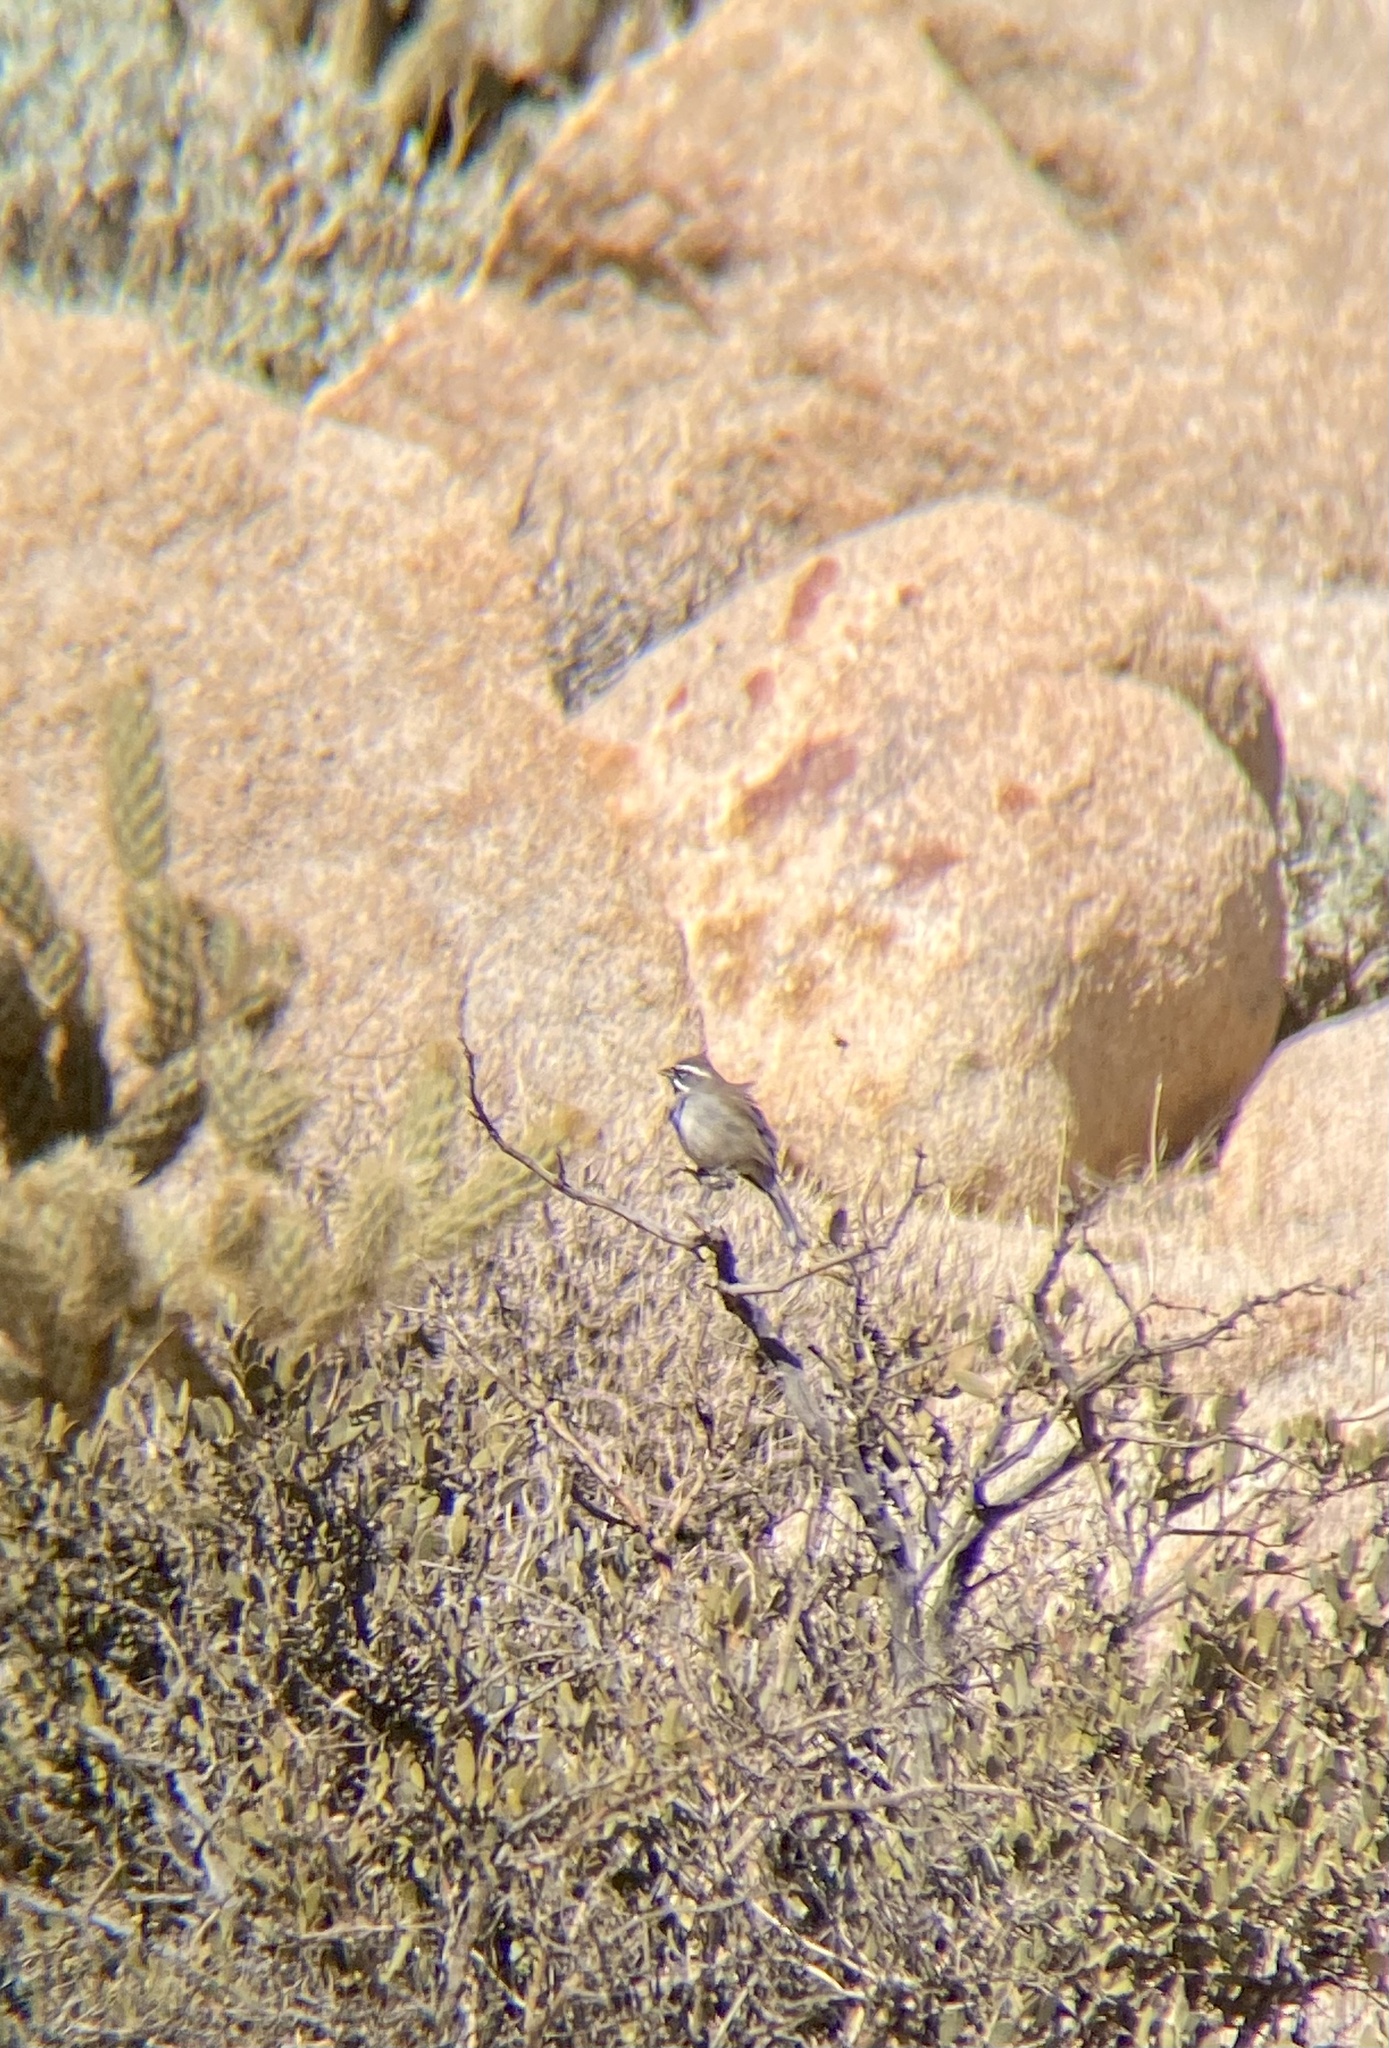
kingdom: Animalia
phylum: Chordata
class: Aves
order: Passeriformes
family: Passerellidae
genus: Amphispiza
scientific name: Amphispiza bilineata
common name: Black-throated sparrow
